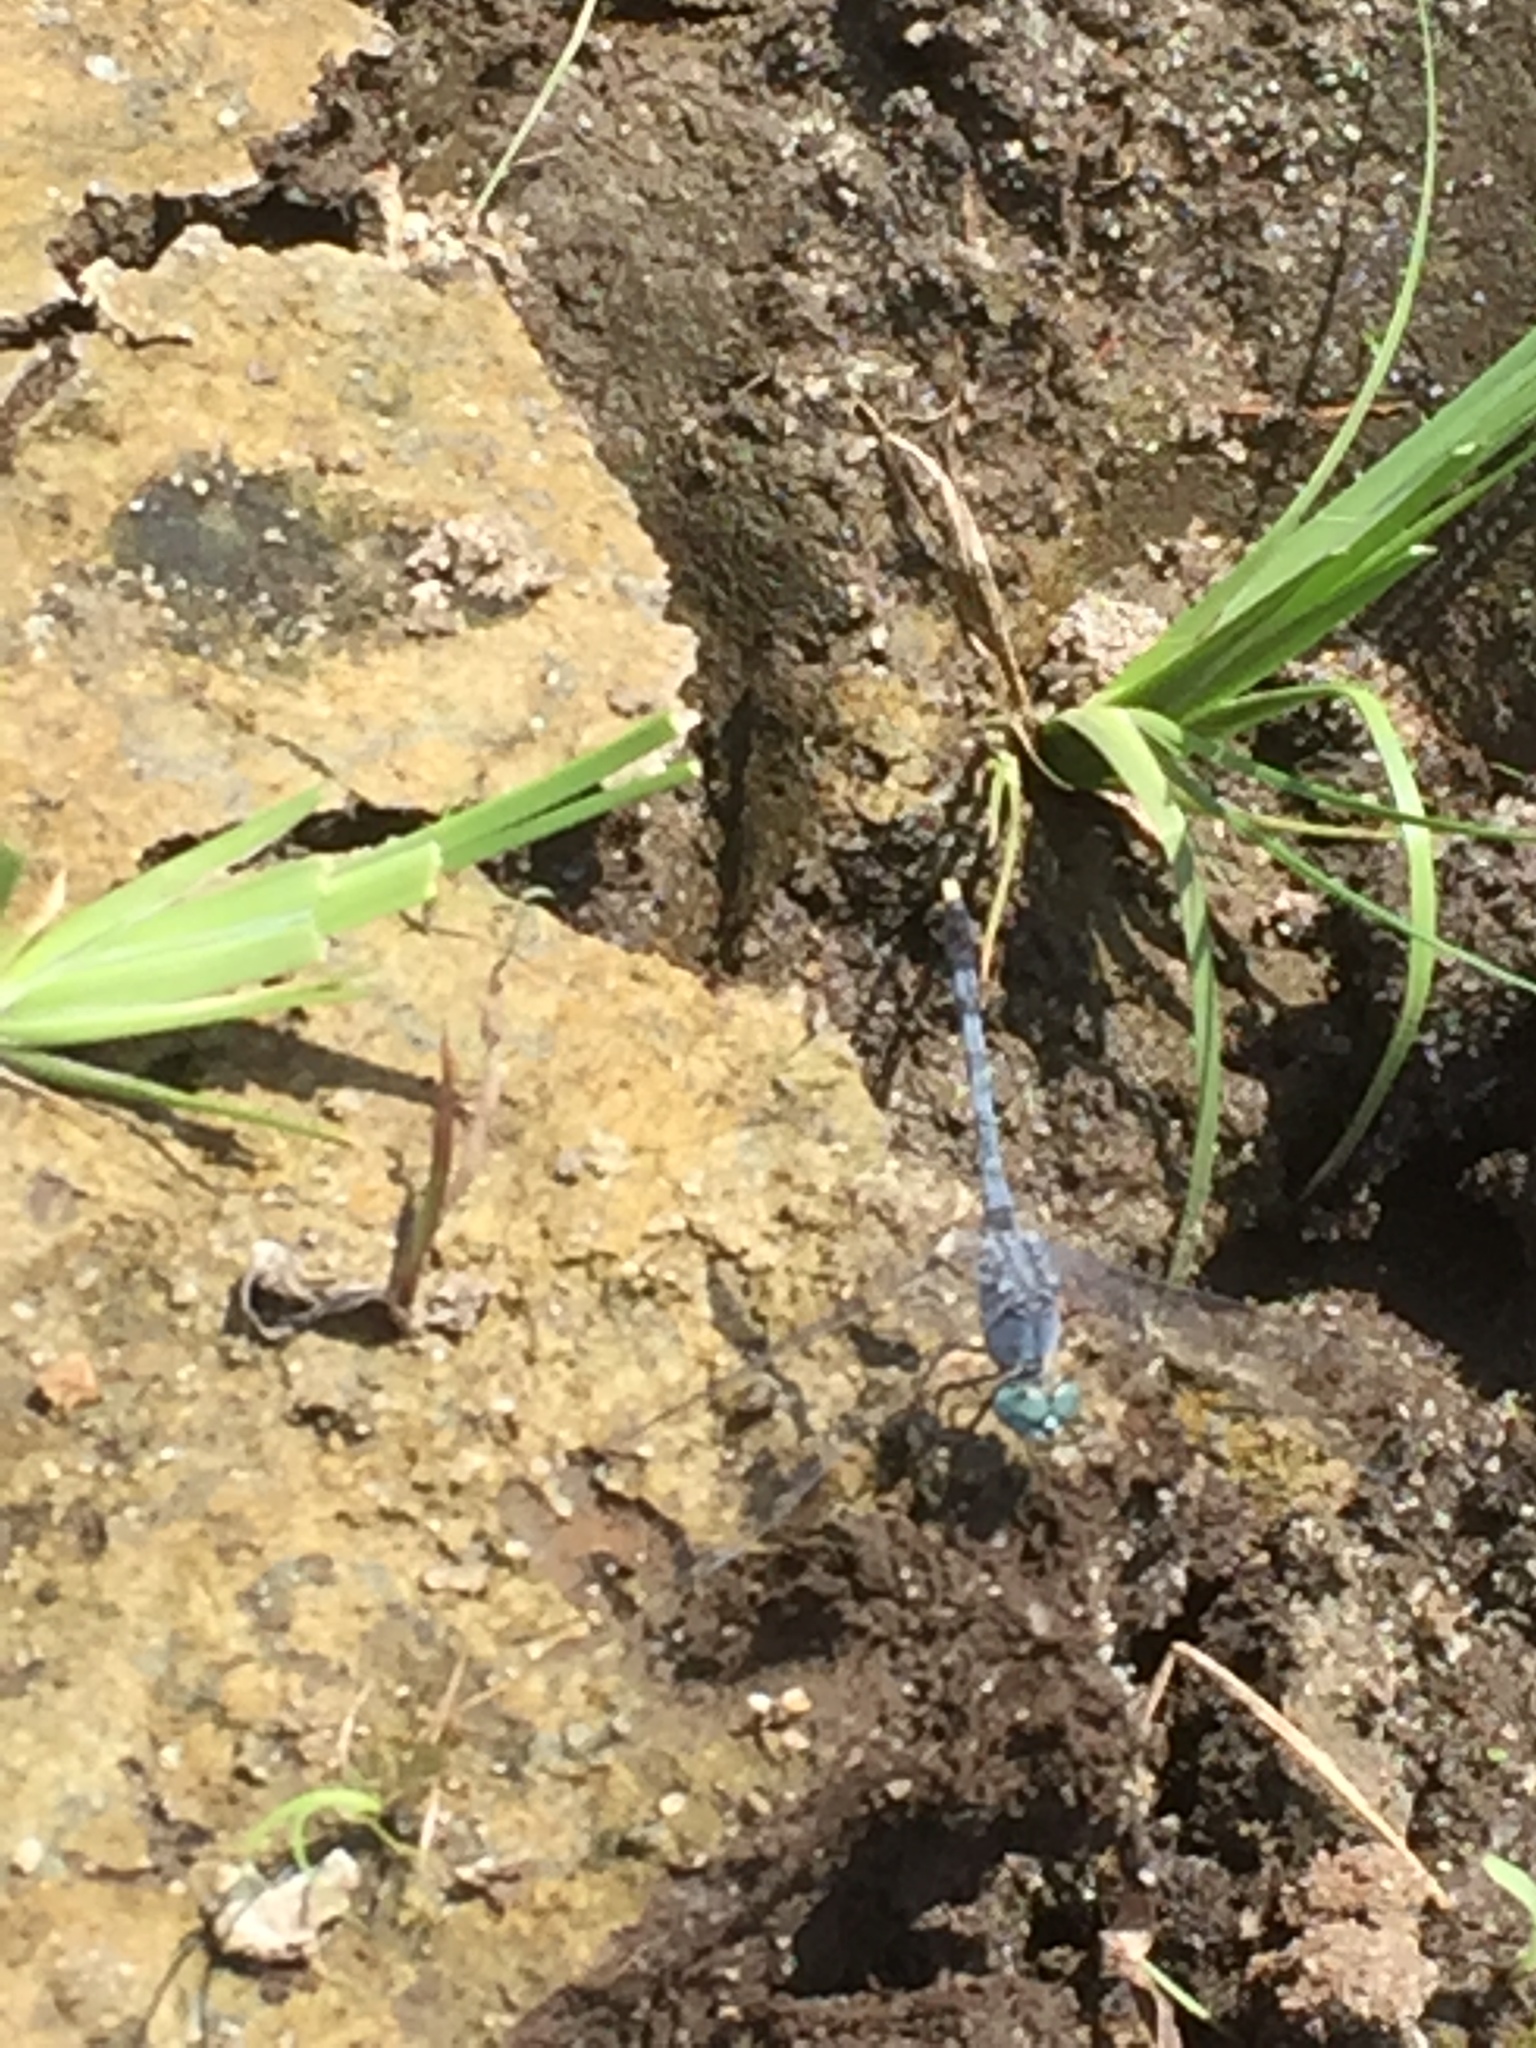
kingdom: Animalia
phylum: Arthropoda
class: Insecta
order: Odonata
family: Libellulidae
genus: Diplacodes
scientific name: Diplacodes trivialis
